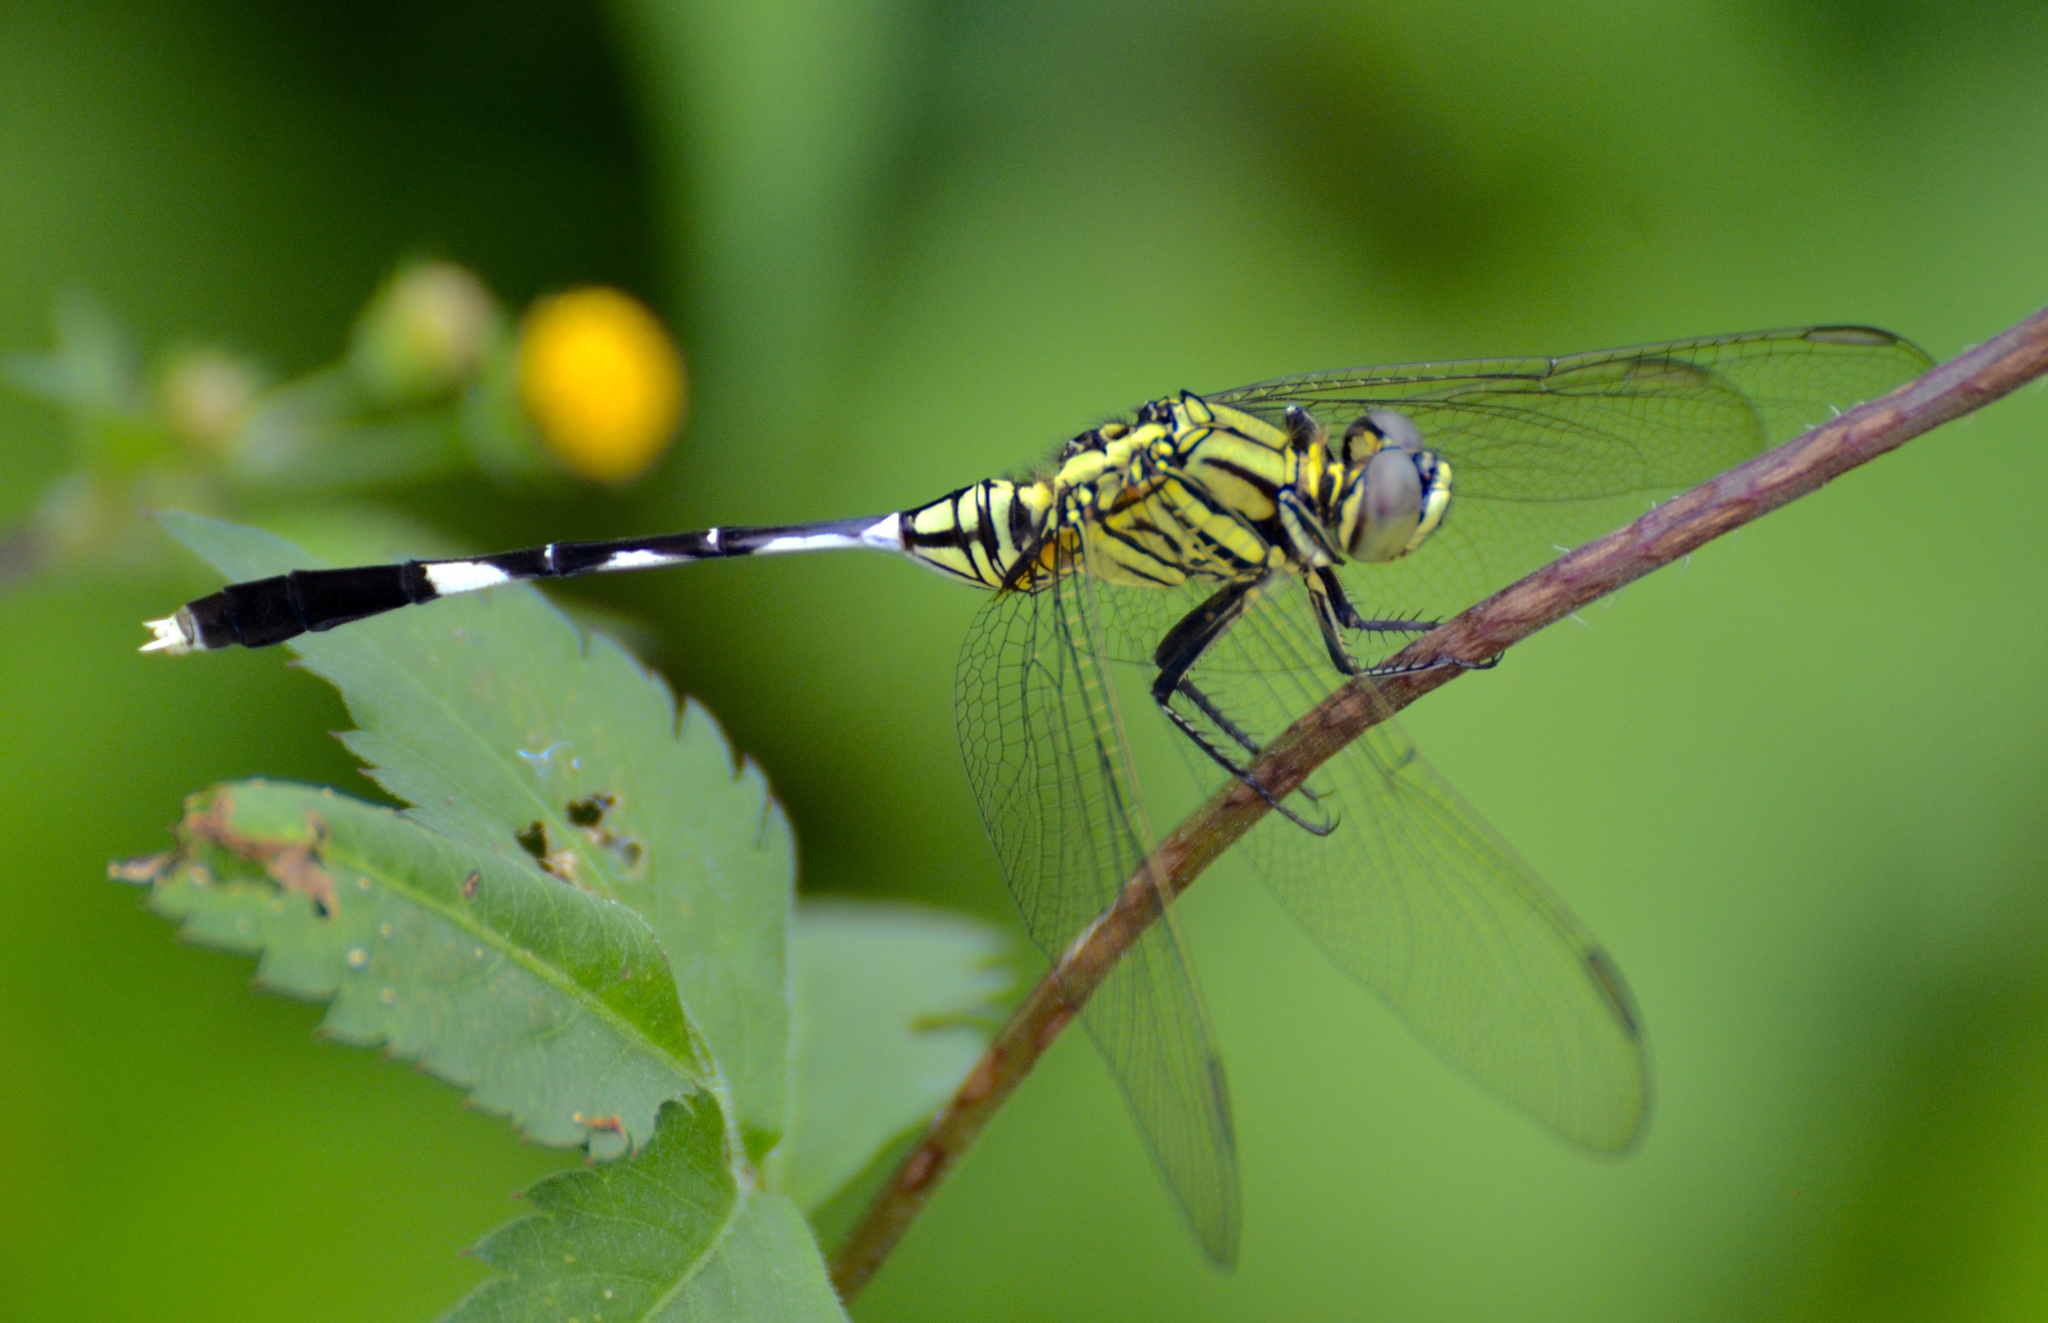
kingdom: Animalia
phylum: Arthropoda
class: Insecta
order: Odonata
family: Libellulidae
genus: Orthetrum
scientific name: Orthetrum sabina
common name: Slender skimmer
